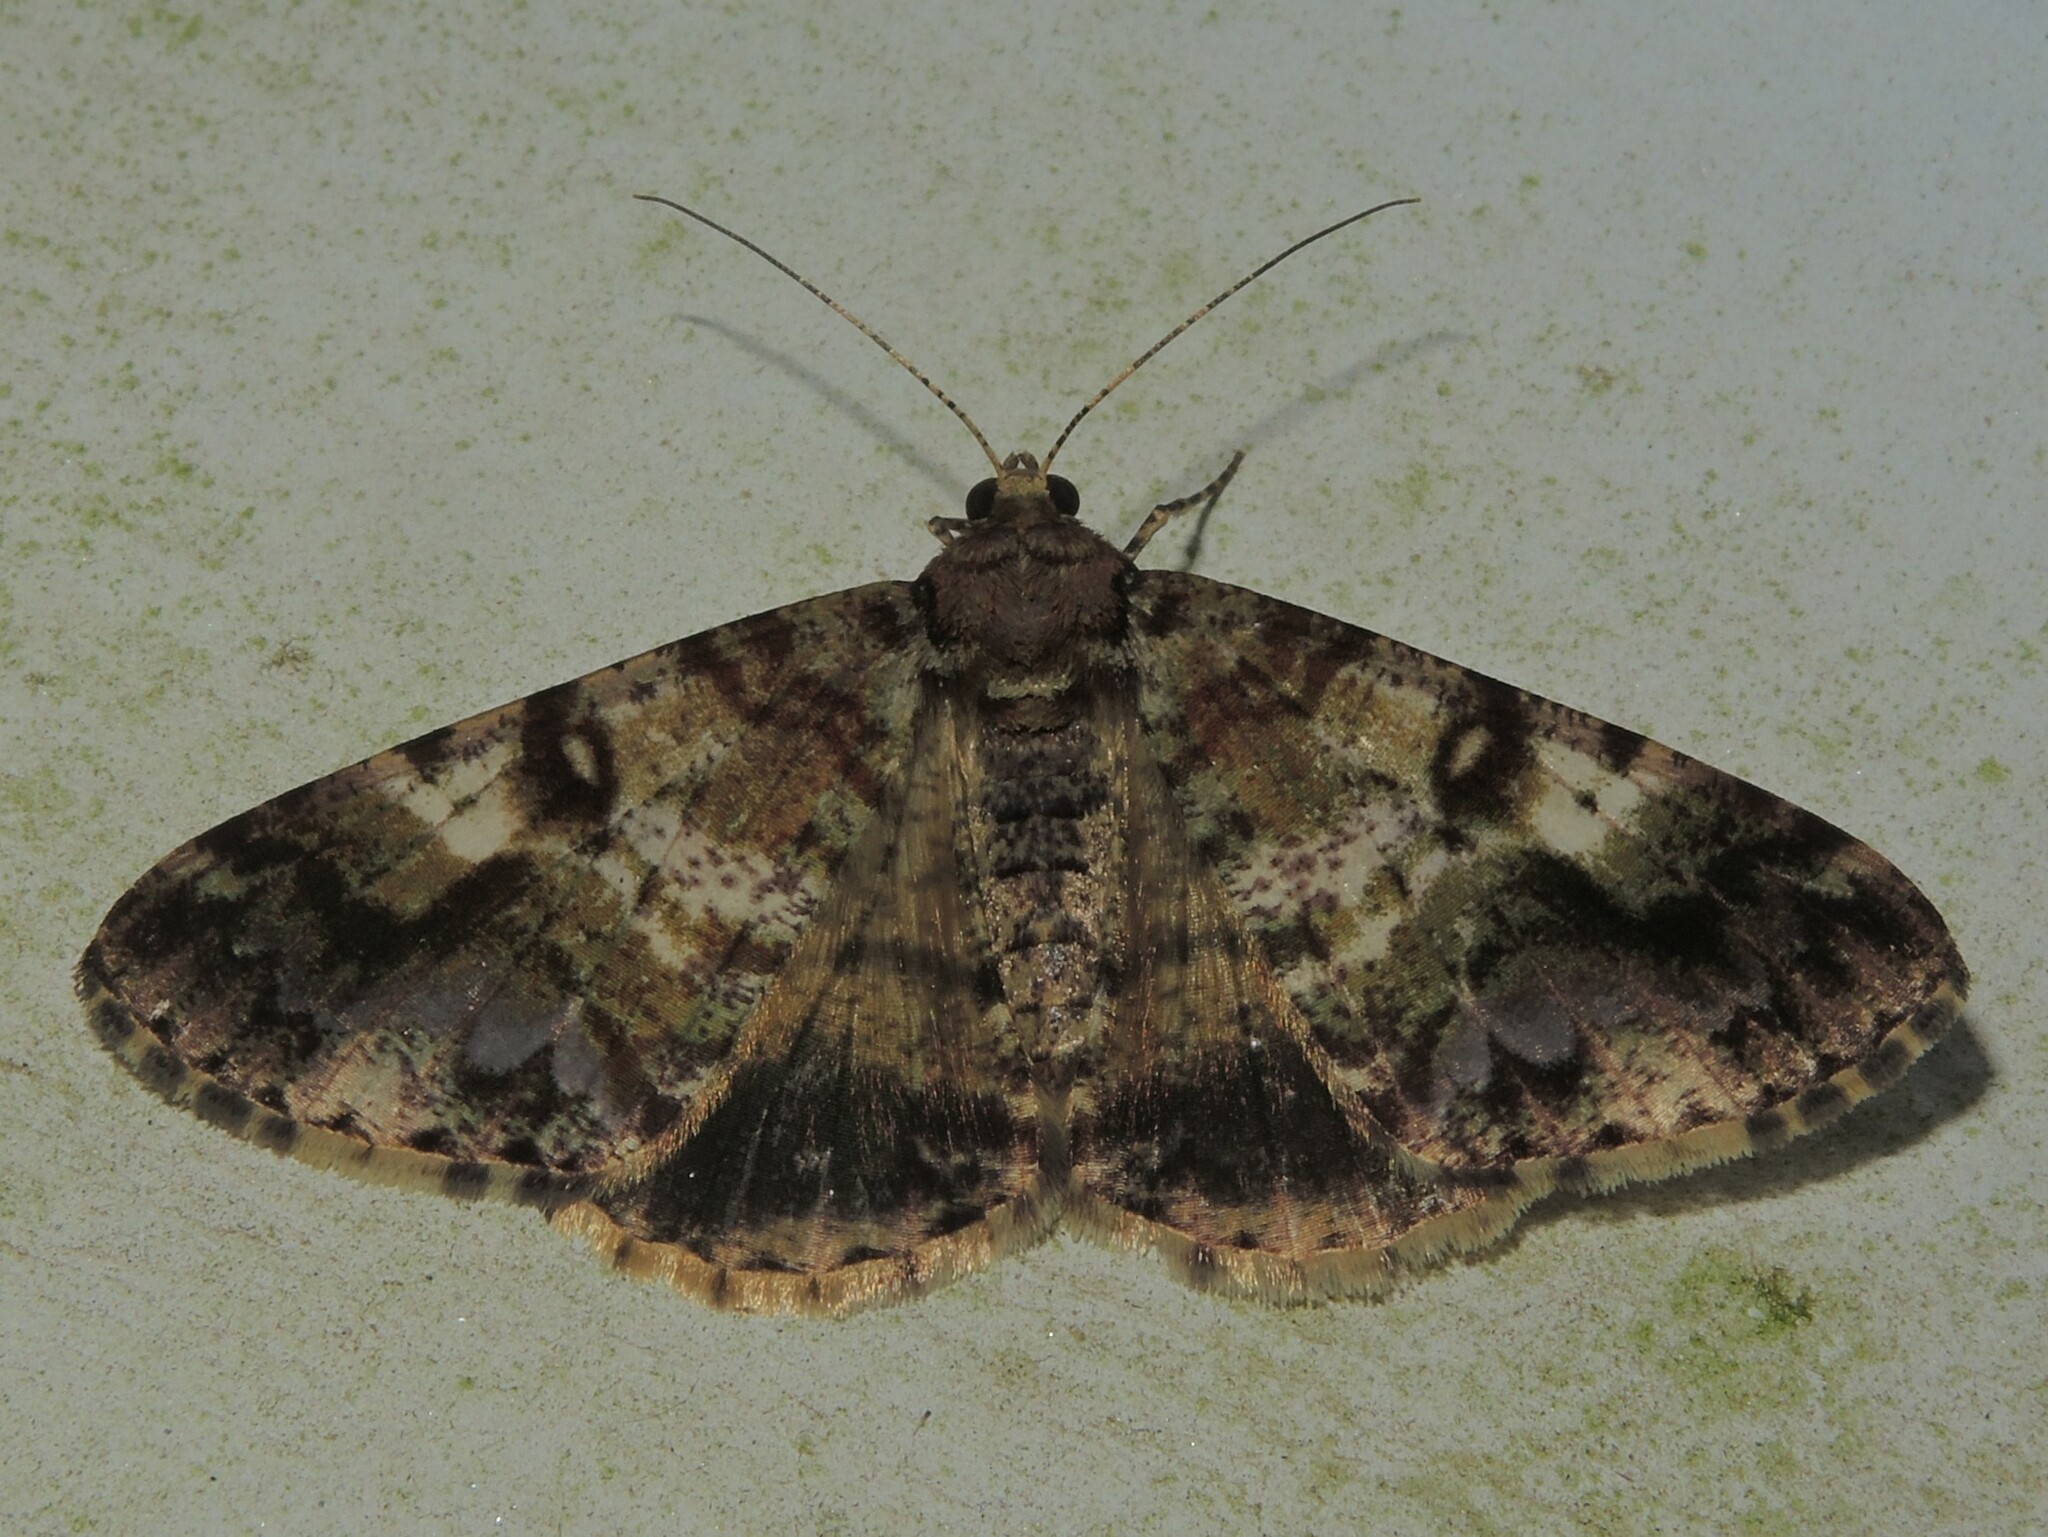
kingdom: Animalia
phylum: Arthropoda
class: Insecta
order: Lepidoptera
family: Geometridae
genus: Gasterocome
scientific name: Gasterocome pannosaria
